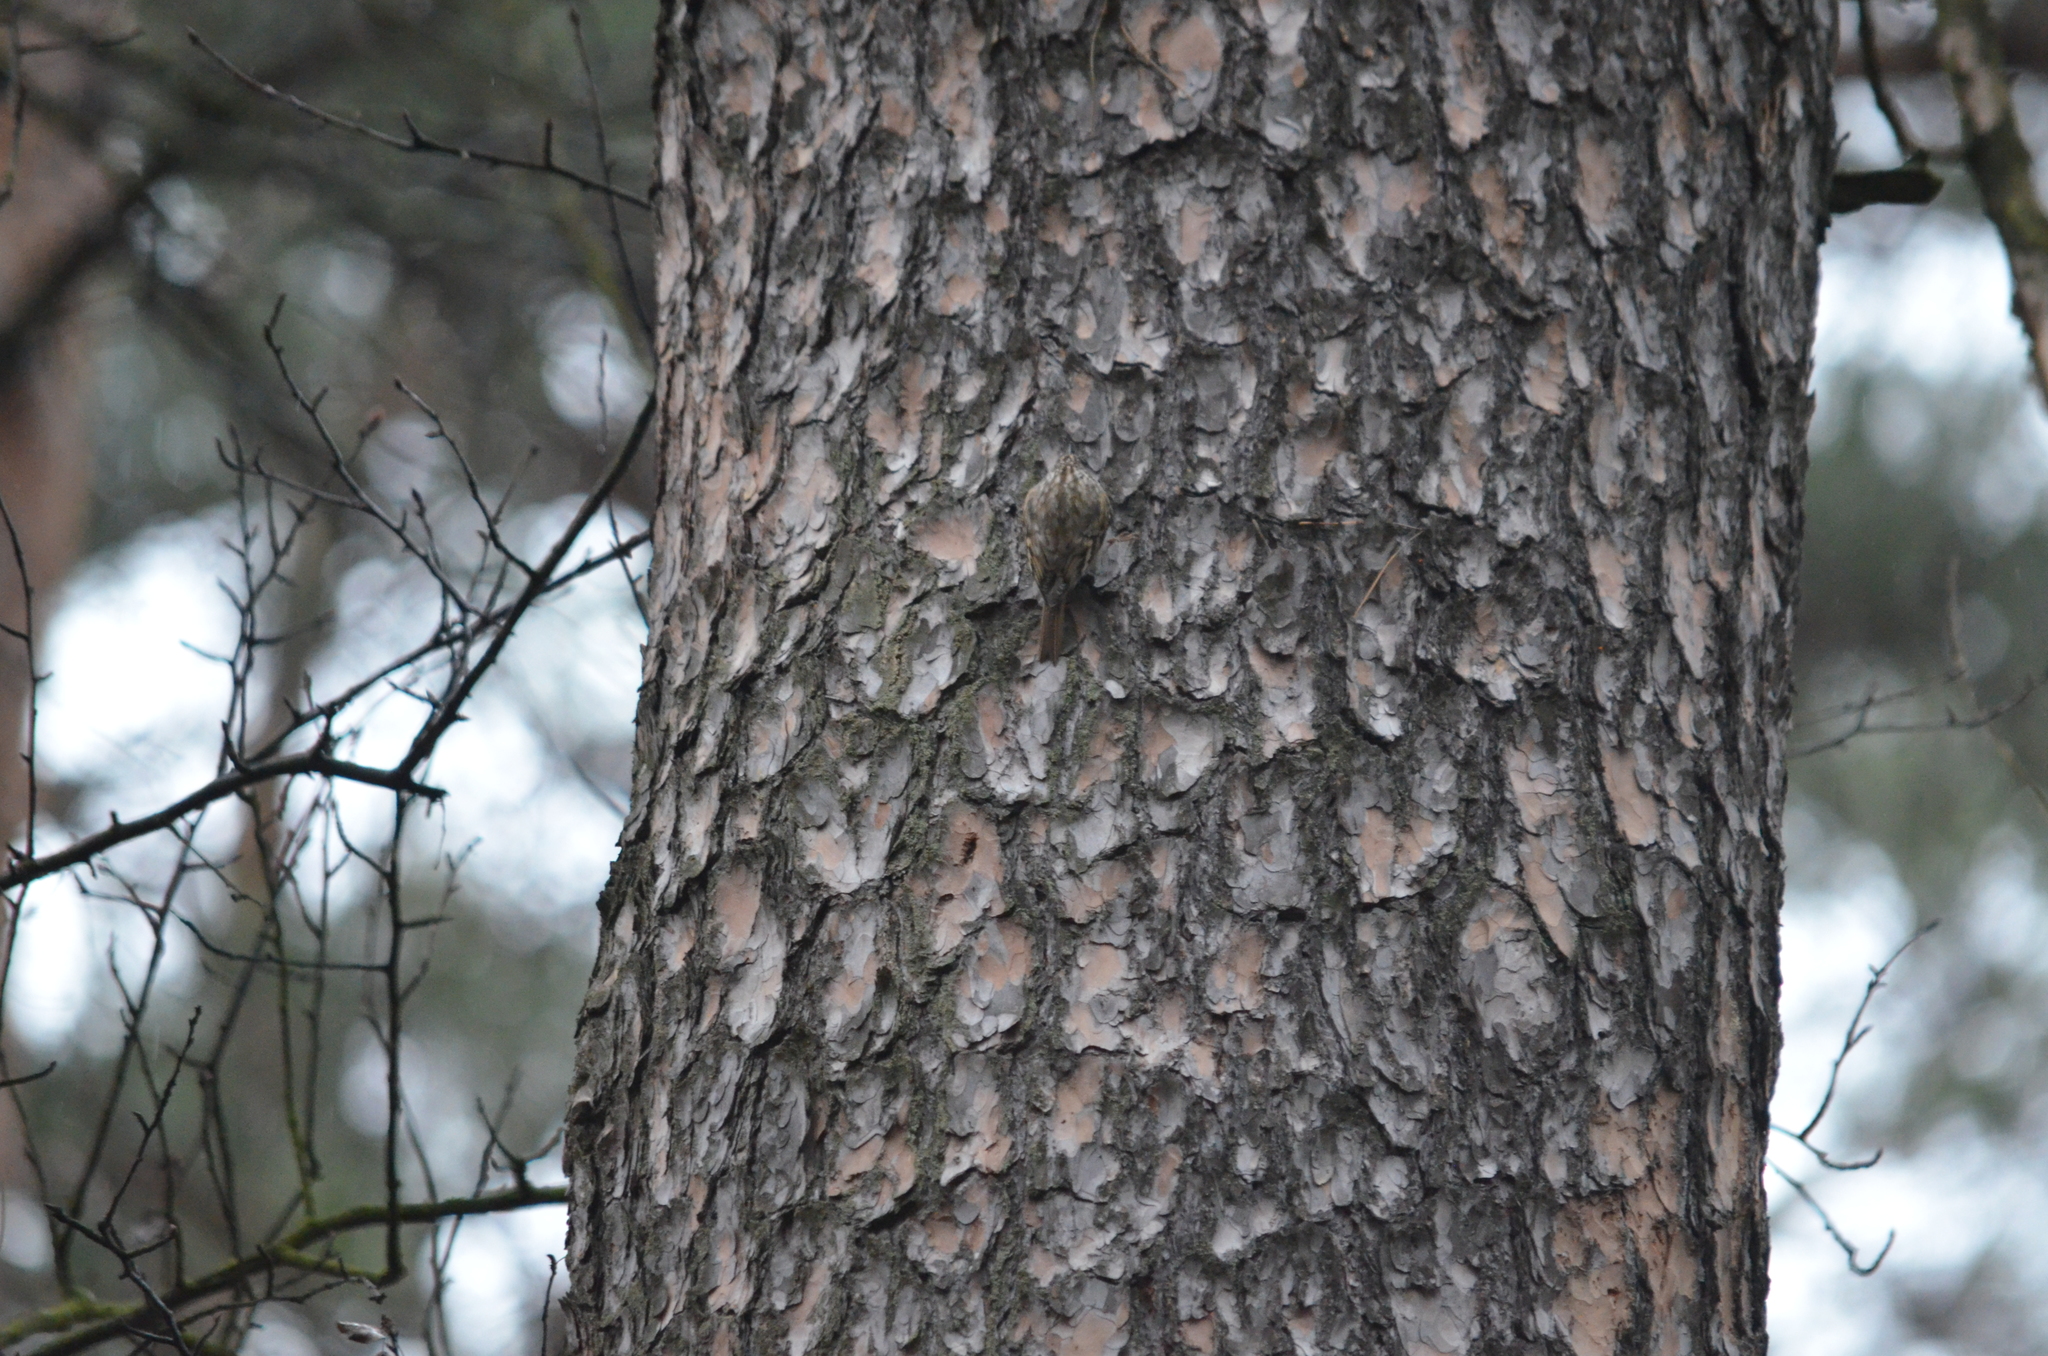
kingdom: Animalia
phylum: Chordata
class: Aves
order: Passeriformes
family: Certhiidae
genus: Certhia
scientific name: Certhia familiaris
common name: Eurasian treecreeper
